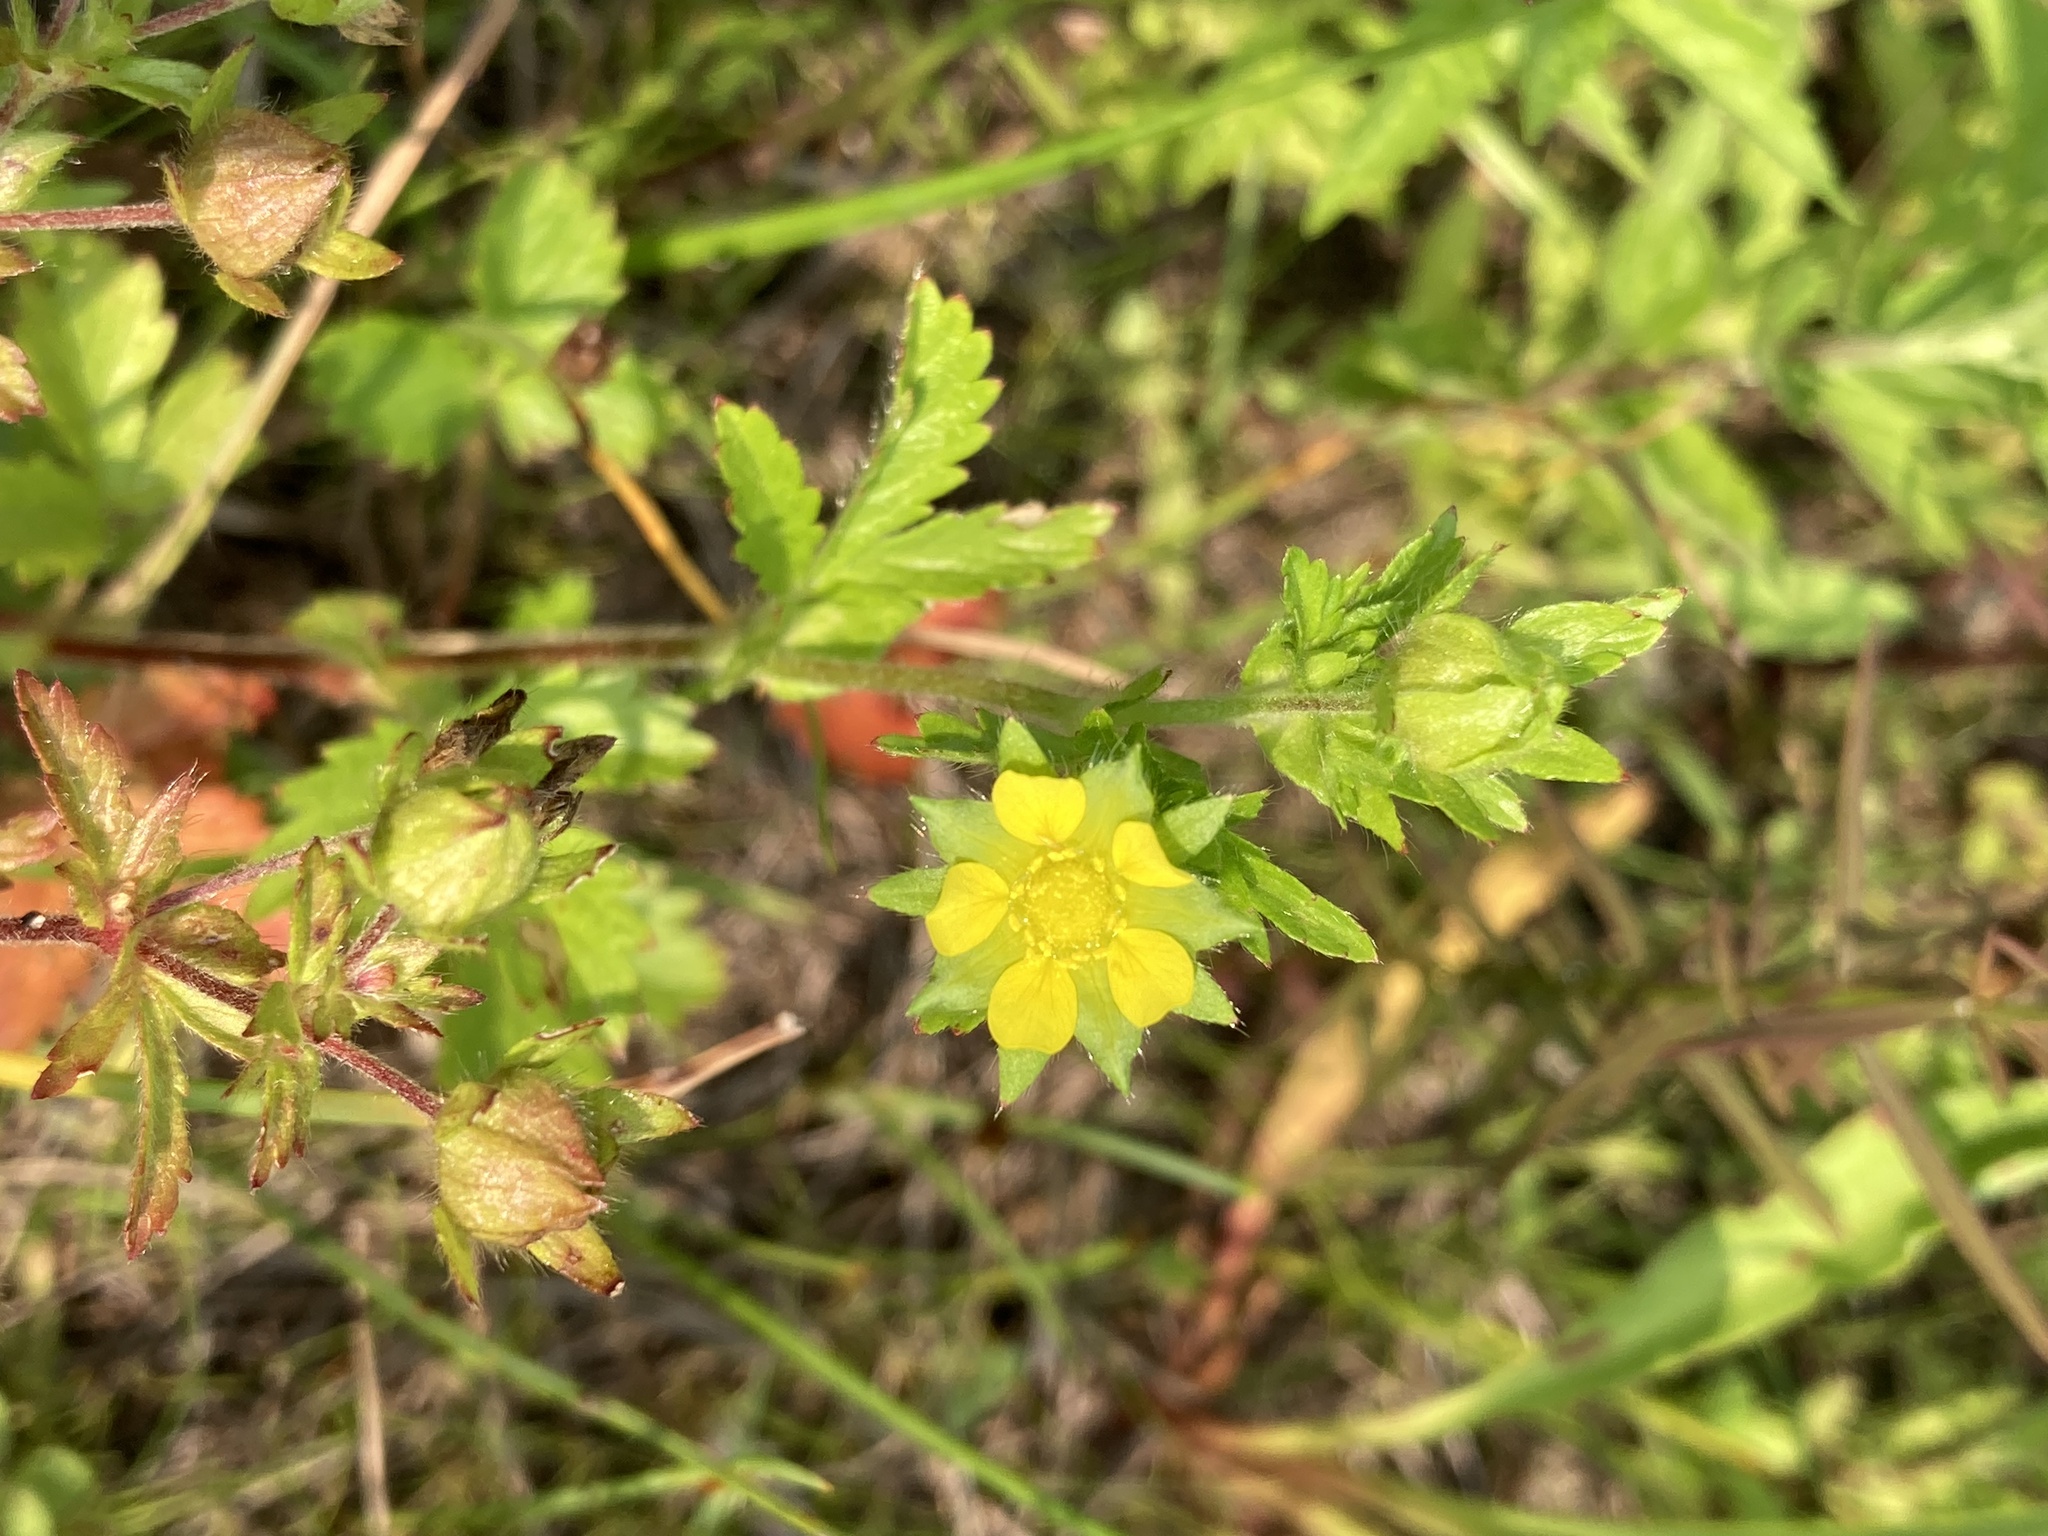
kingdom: Plantae
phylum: Tracheophyta
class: Magnoliopsida
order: Rosales
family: Rosaceae
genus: Potentilla
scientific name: Potentilla norvegica
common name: Ternate-leaved cinquefoil
